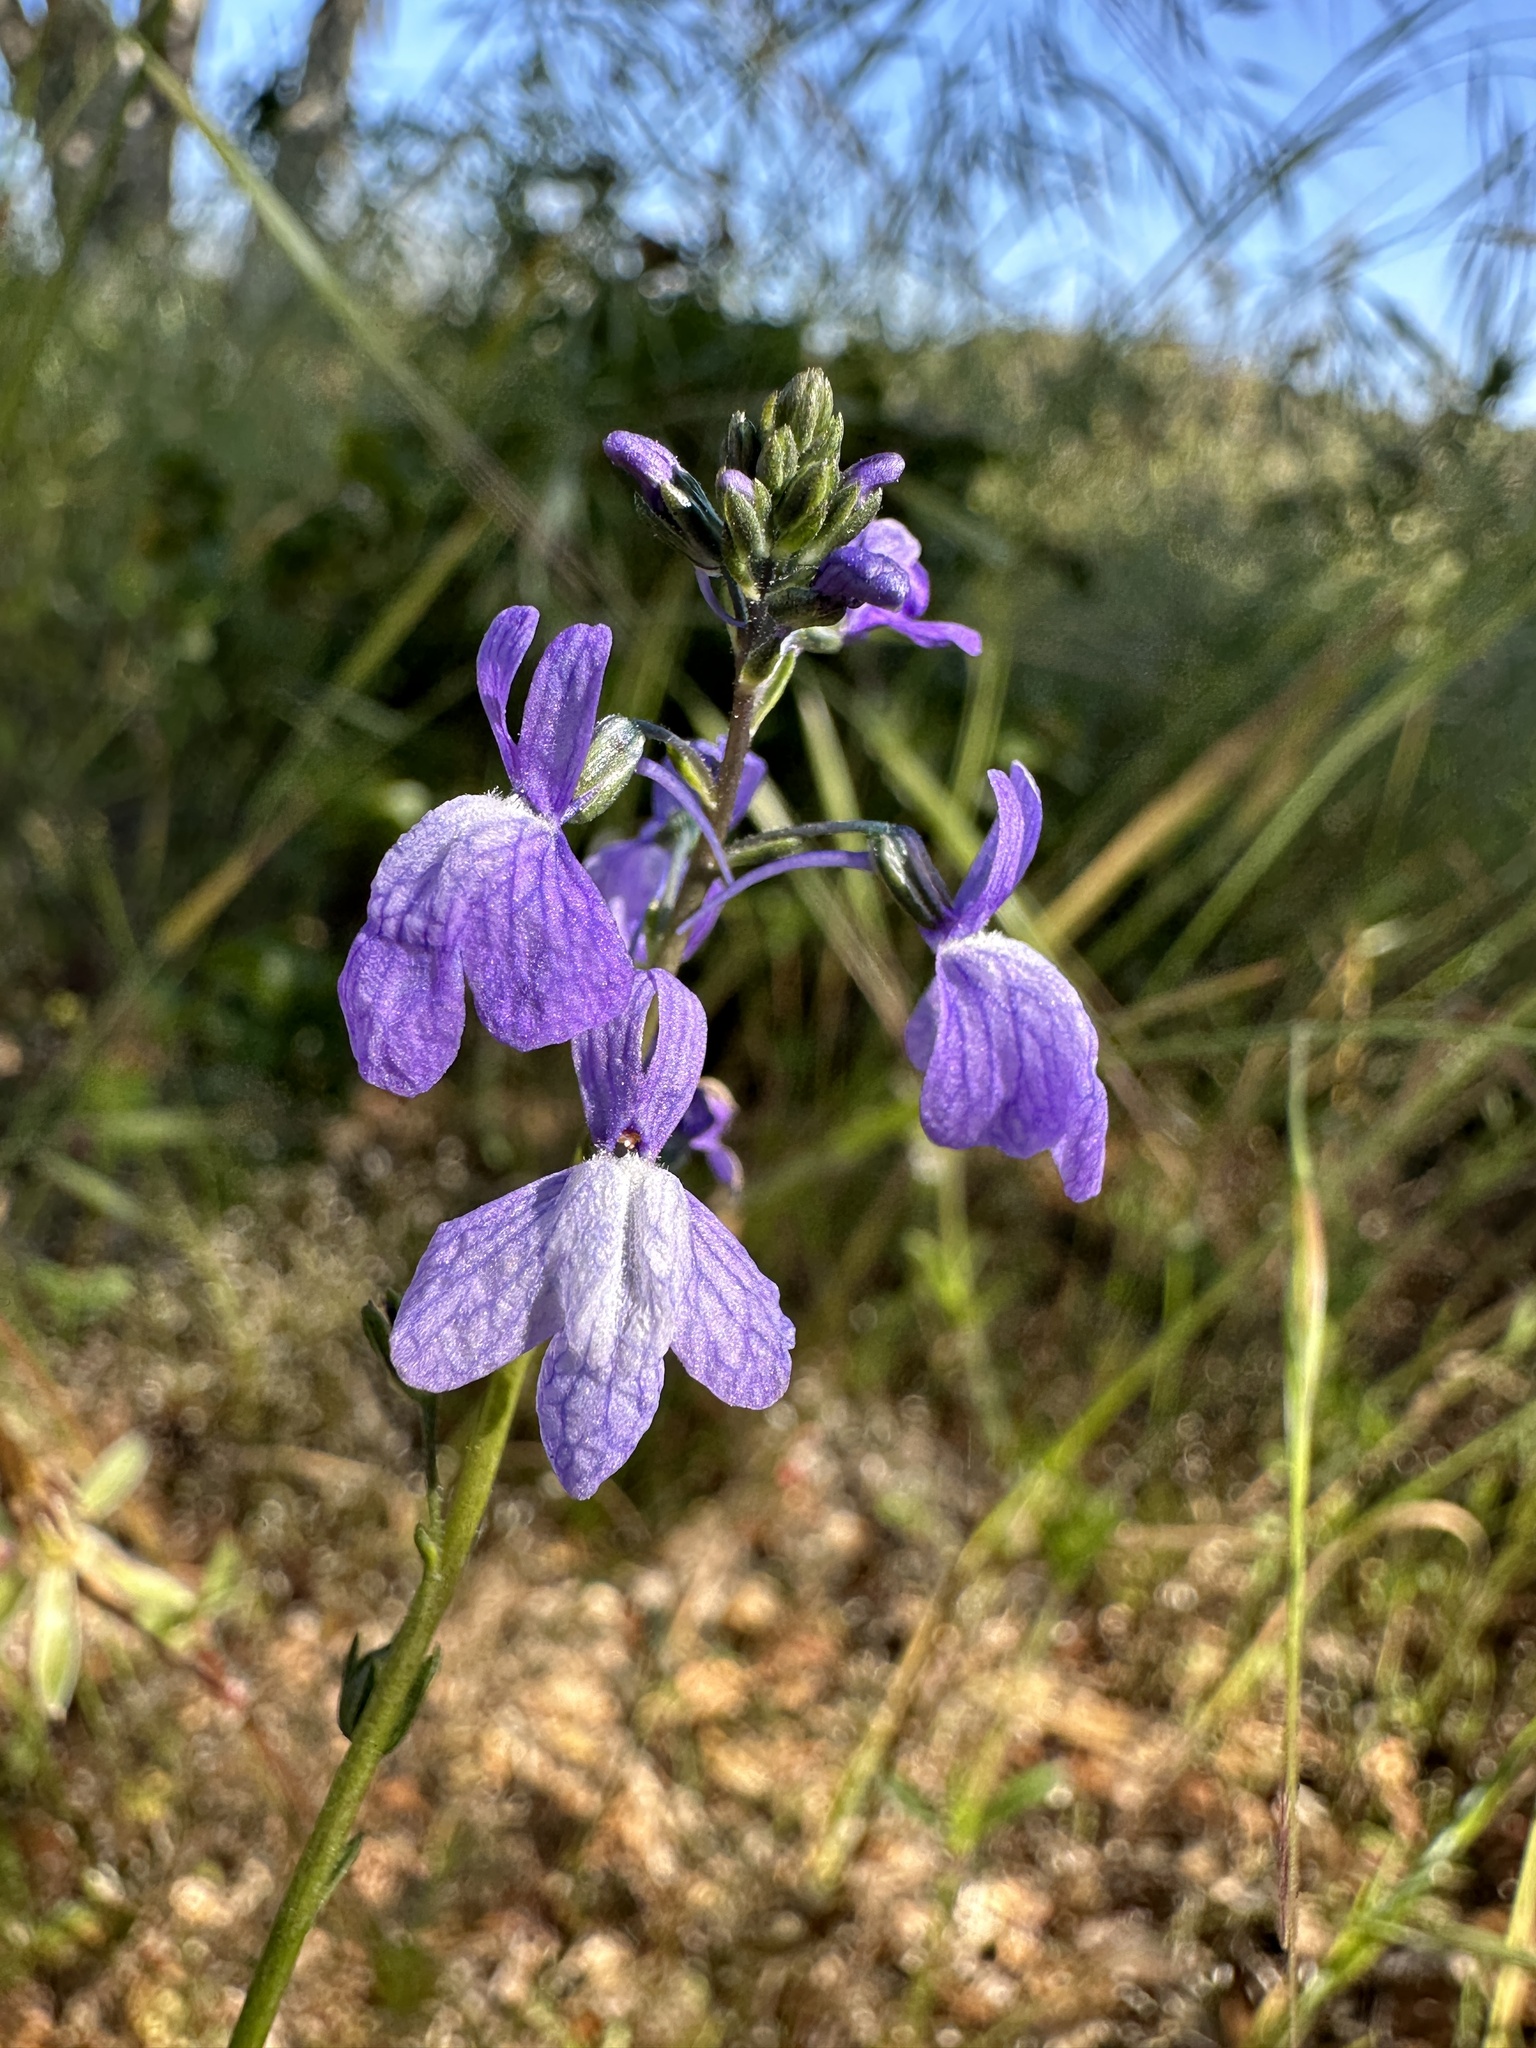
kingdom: Plantae
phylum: Tracheophyta
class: Magnoliopsida
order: Lamiales
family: Plantaginaceae
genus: Nuttallanthus
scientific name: Nuttallanthus texanus
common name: Texas toadflax
